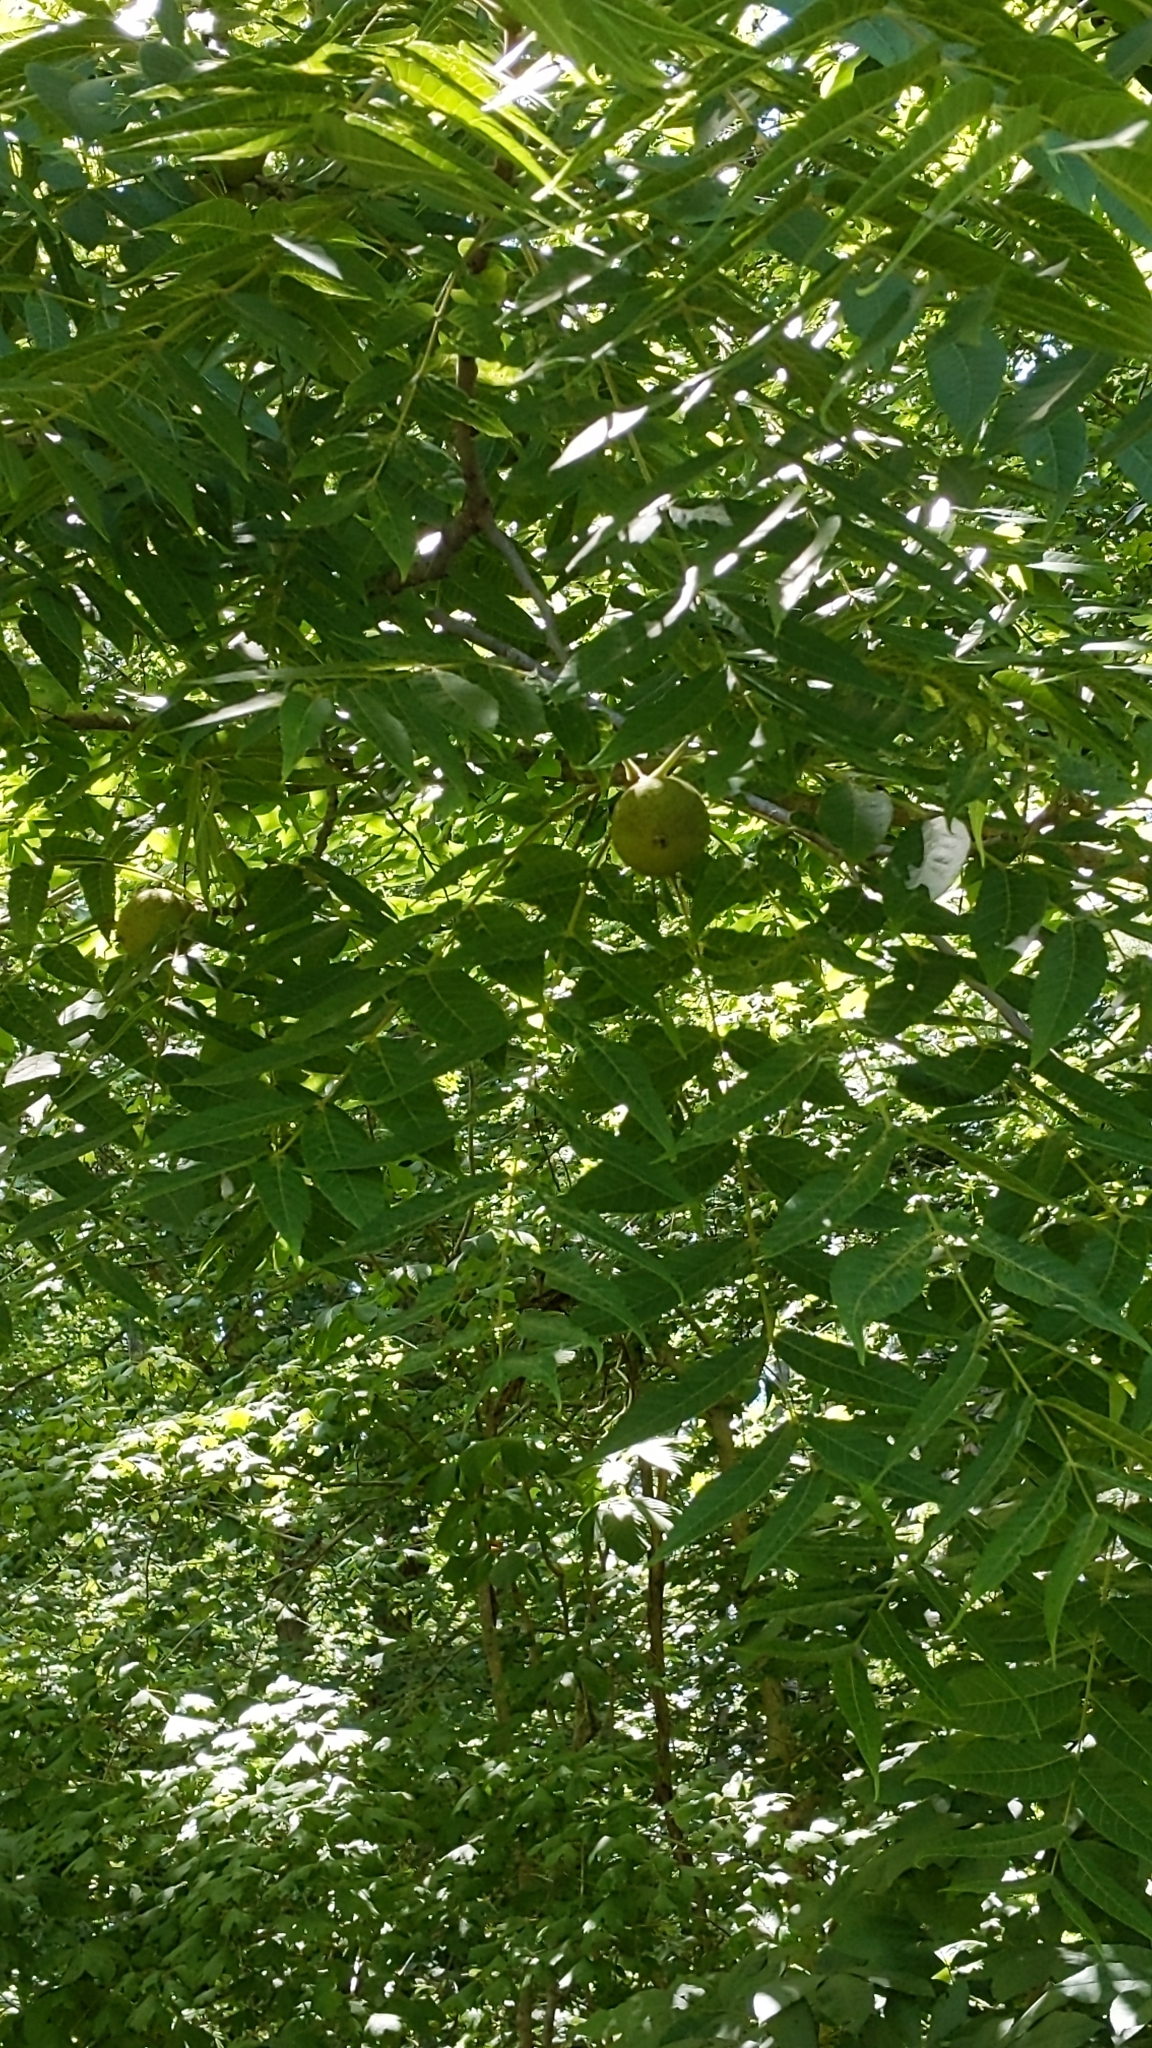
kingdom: Plantae
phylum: Tracheophyta
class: Magnoliopsida
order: Fagales
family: Juglandaceae
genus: Juglans
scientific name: Juglans nigra
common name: Black walnut
